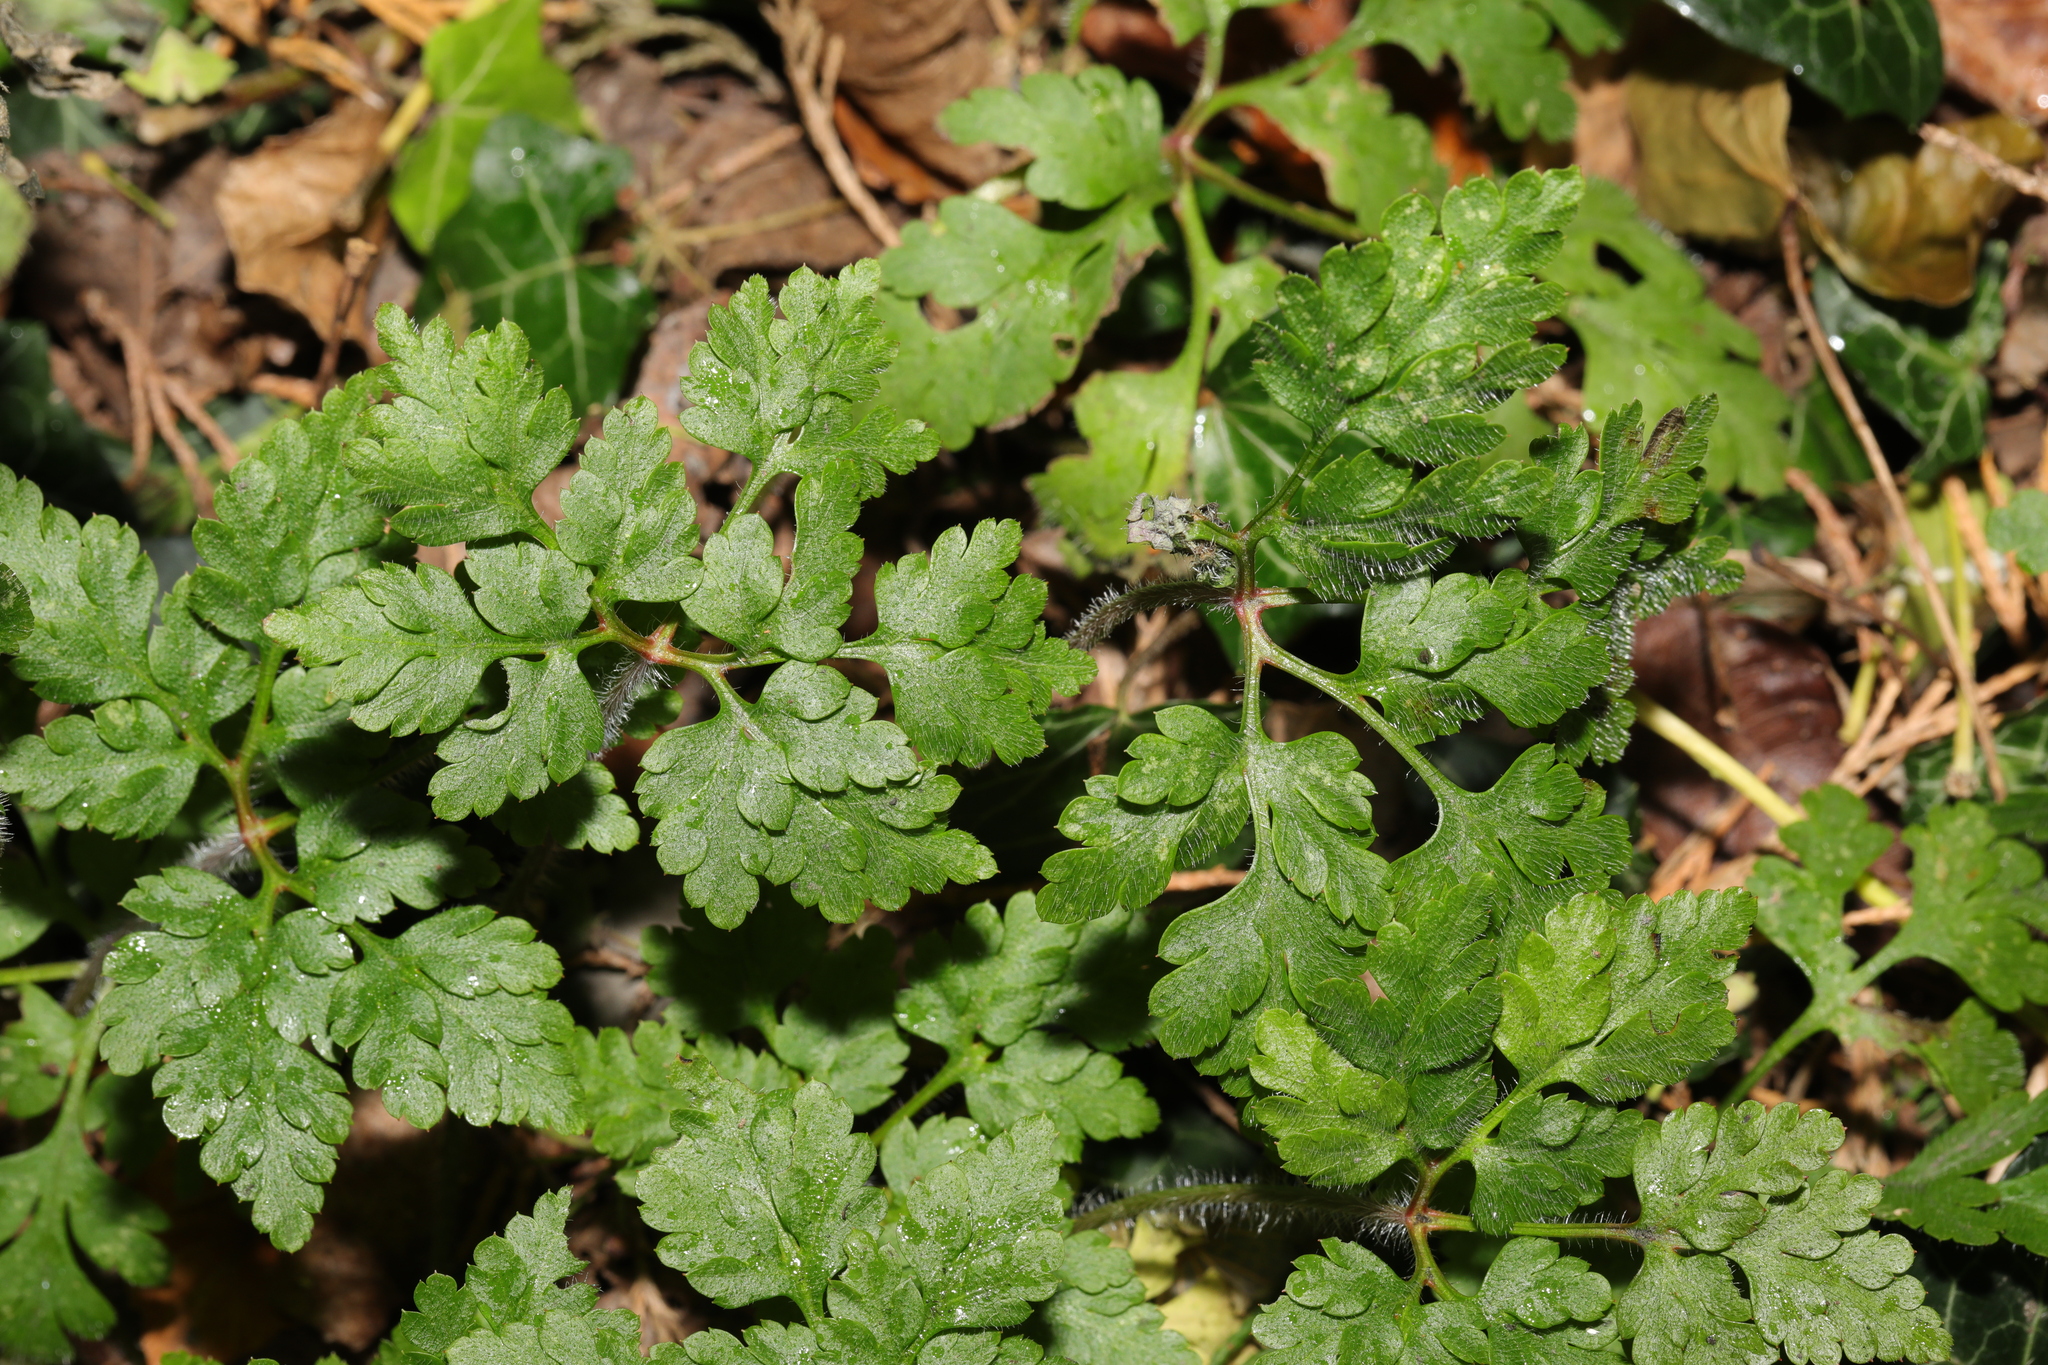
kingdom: Plantae
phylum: Tracheophyta
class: Magnoliopsida
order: Geraniales
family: Geraniaceae
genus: Geranium
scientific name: Geranium robertianum
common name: Herb-robert
